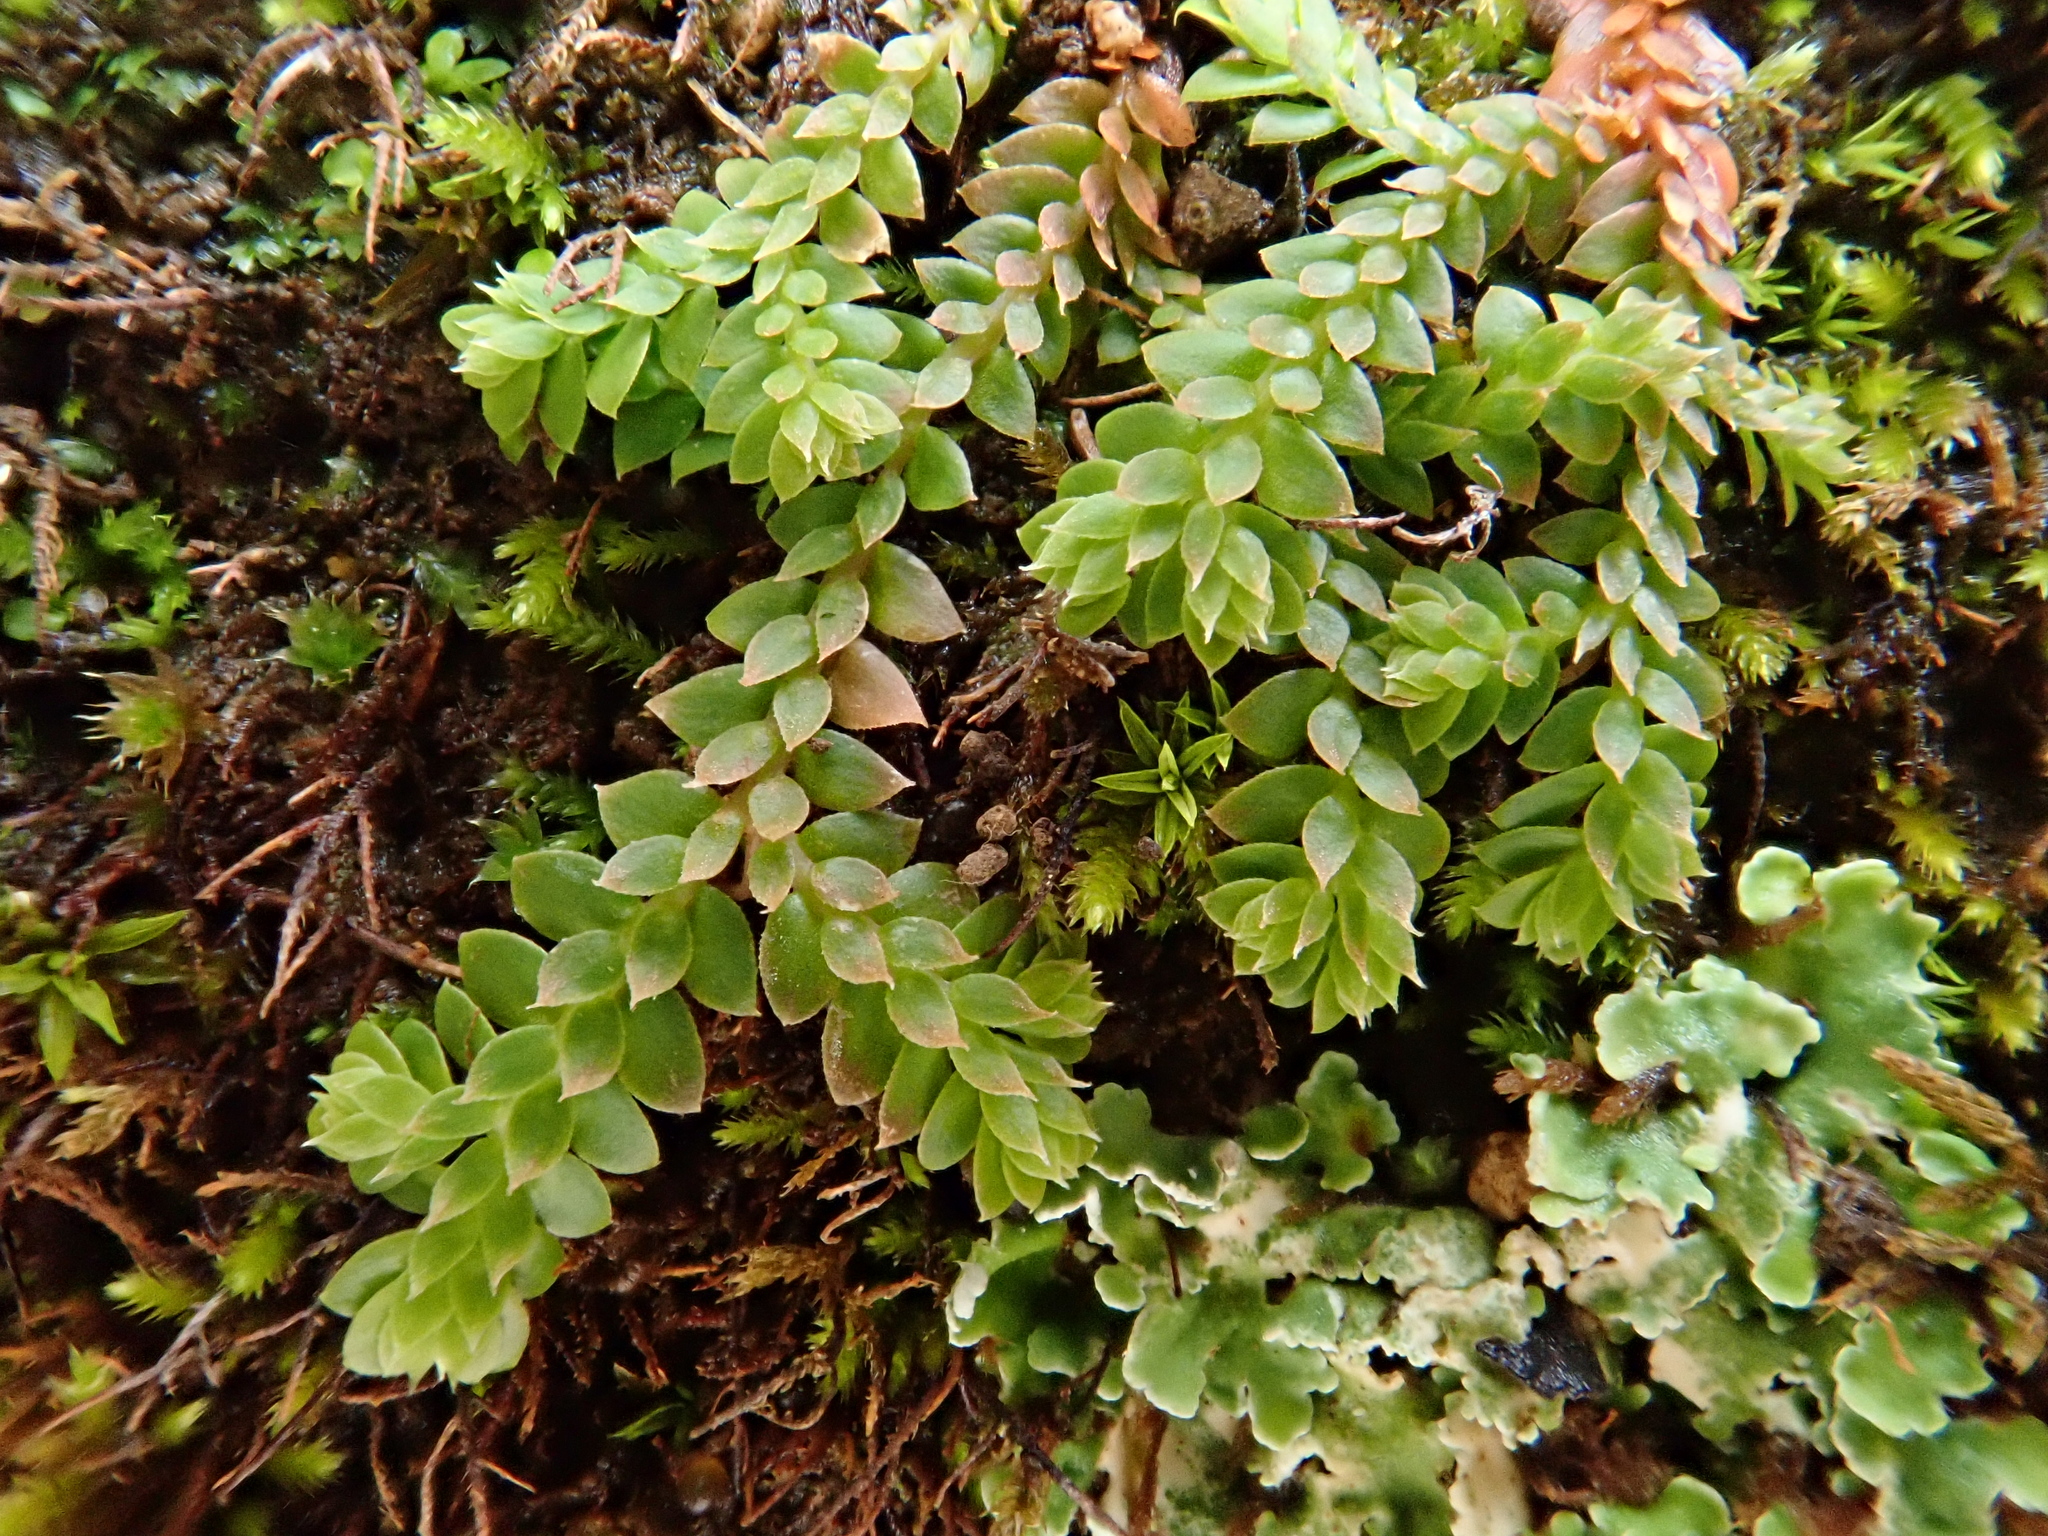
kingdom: Plantae
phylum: Tracheophyta
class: Lycopodiopsida
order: Selaginellales
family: Selaginellaceae
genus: Selaginella
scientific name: Selaginella denticulata
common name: Toothed-leaved clubmoss
